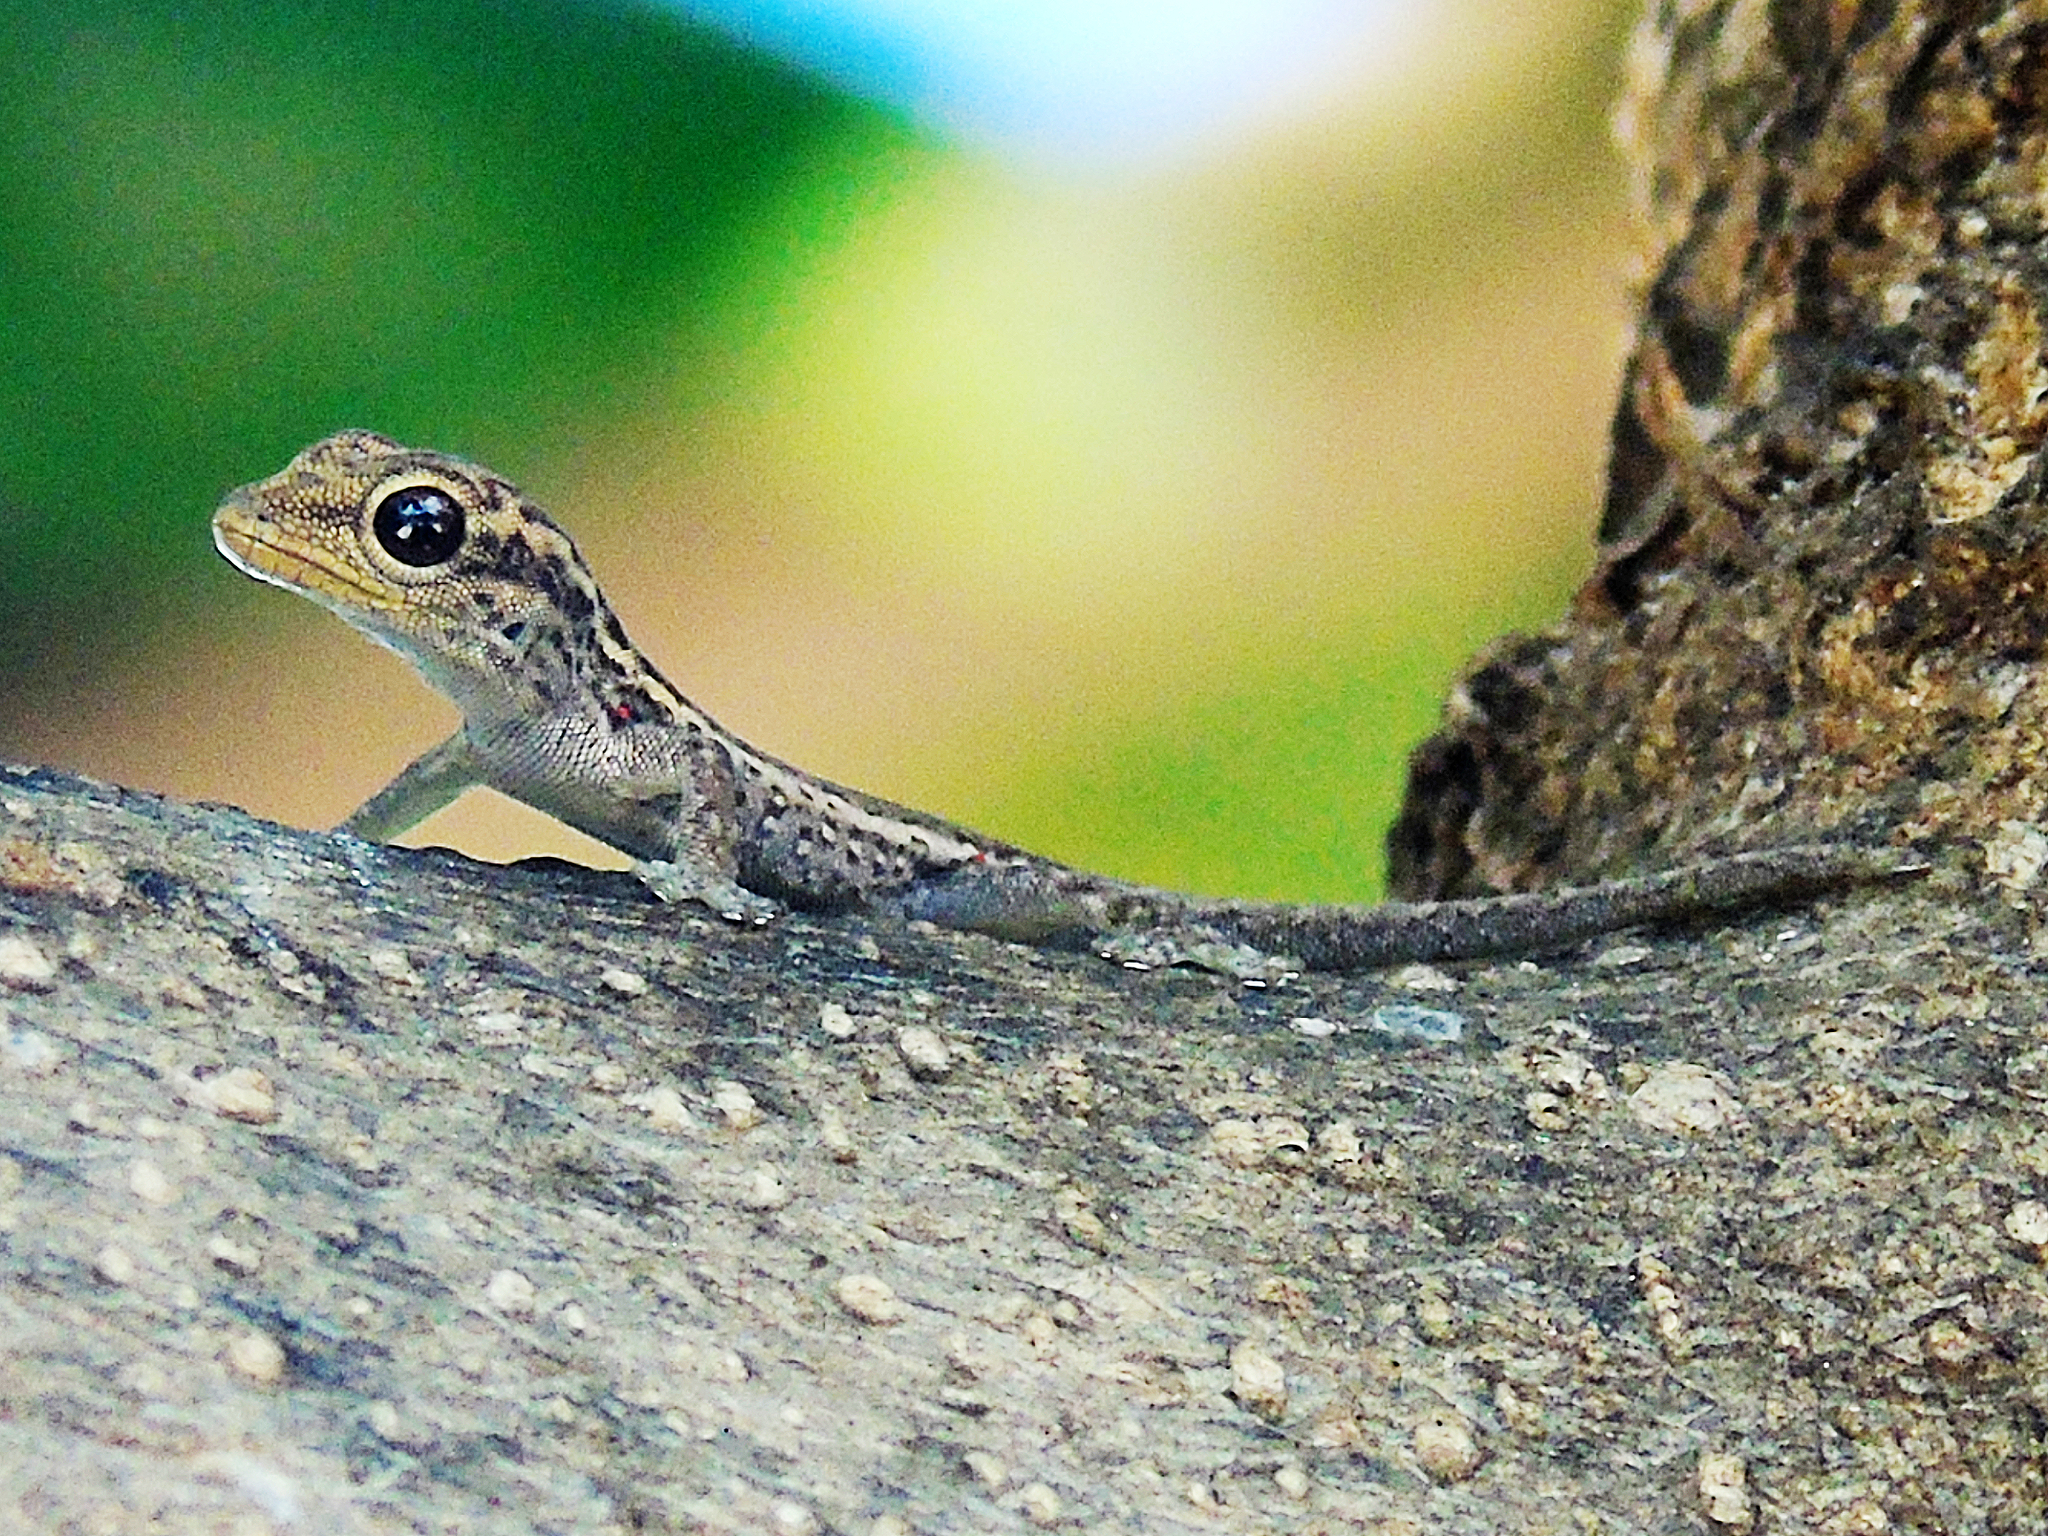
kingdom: Animalia
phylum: Chordata
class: Squamata
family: Gekkonidae
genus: Lygodactylus
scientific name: Lygodactylus picturatus
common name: Painted dwarf gecko
